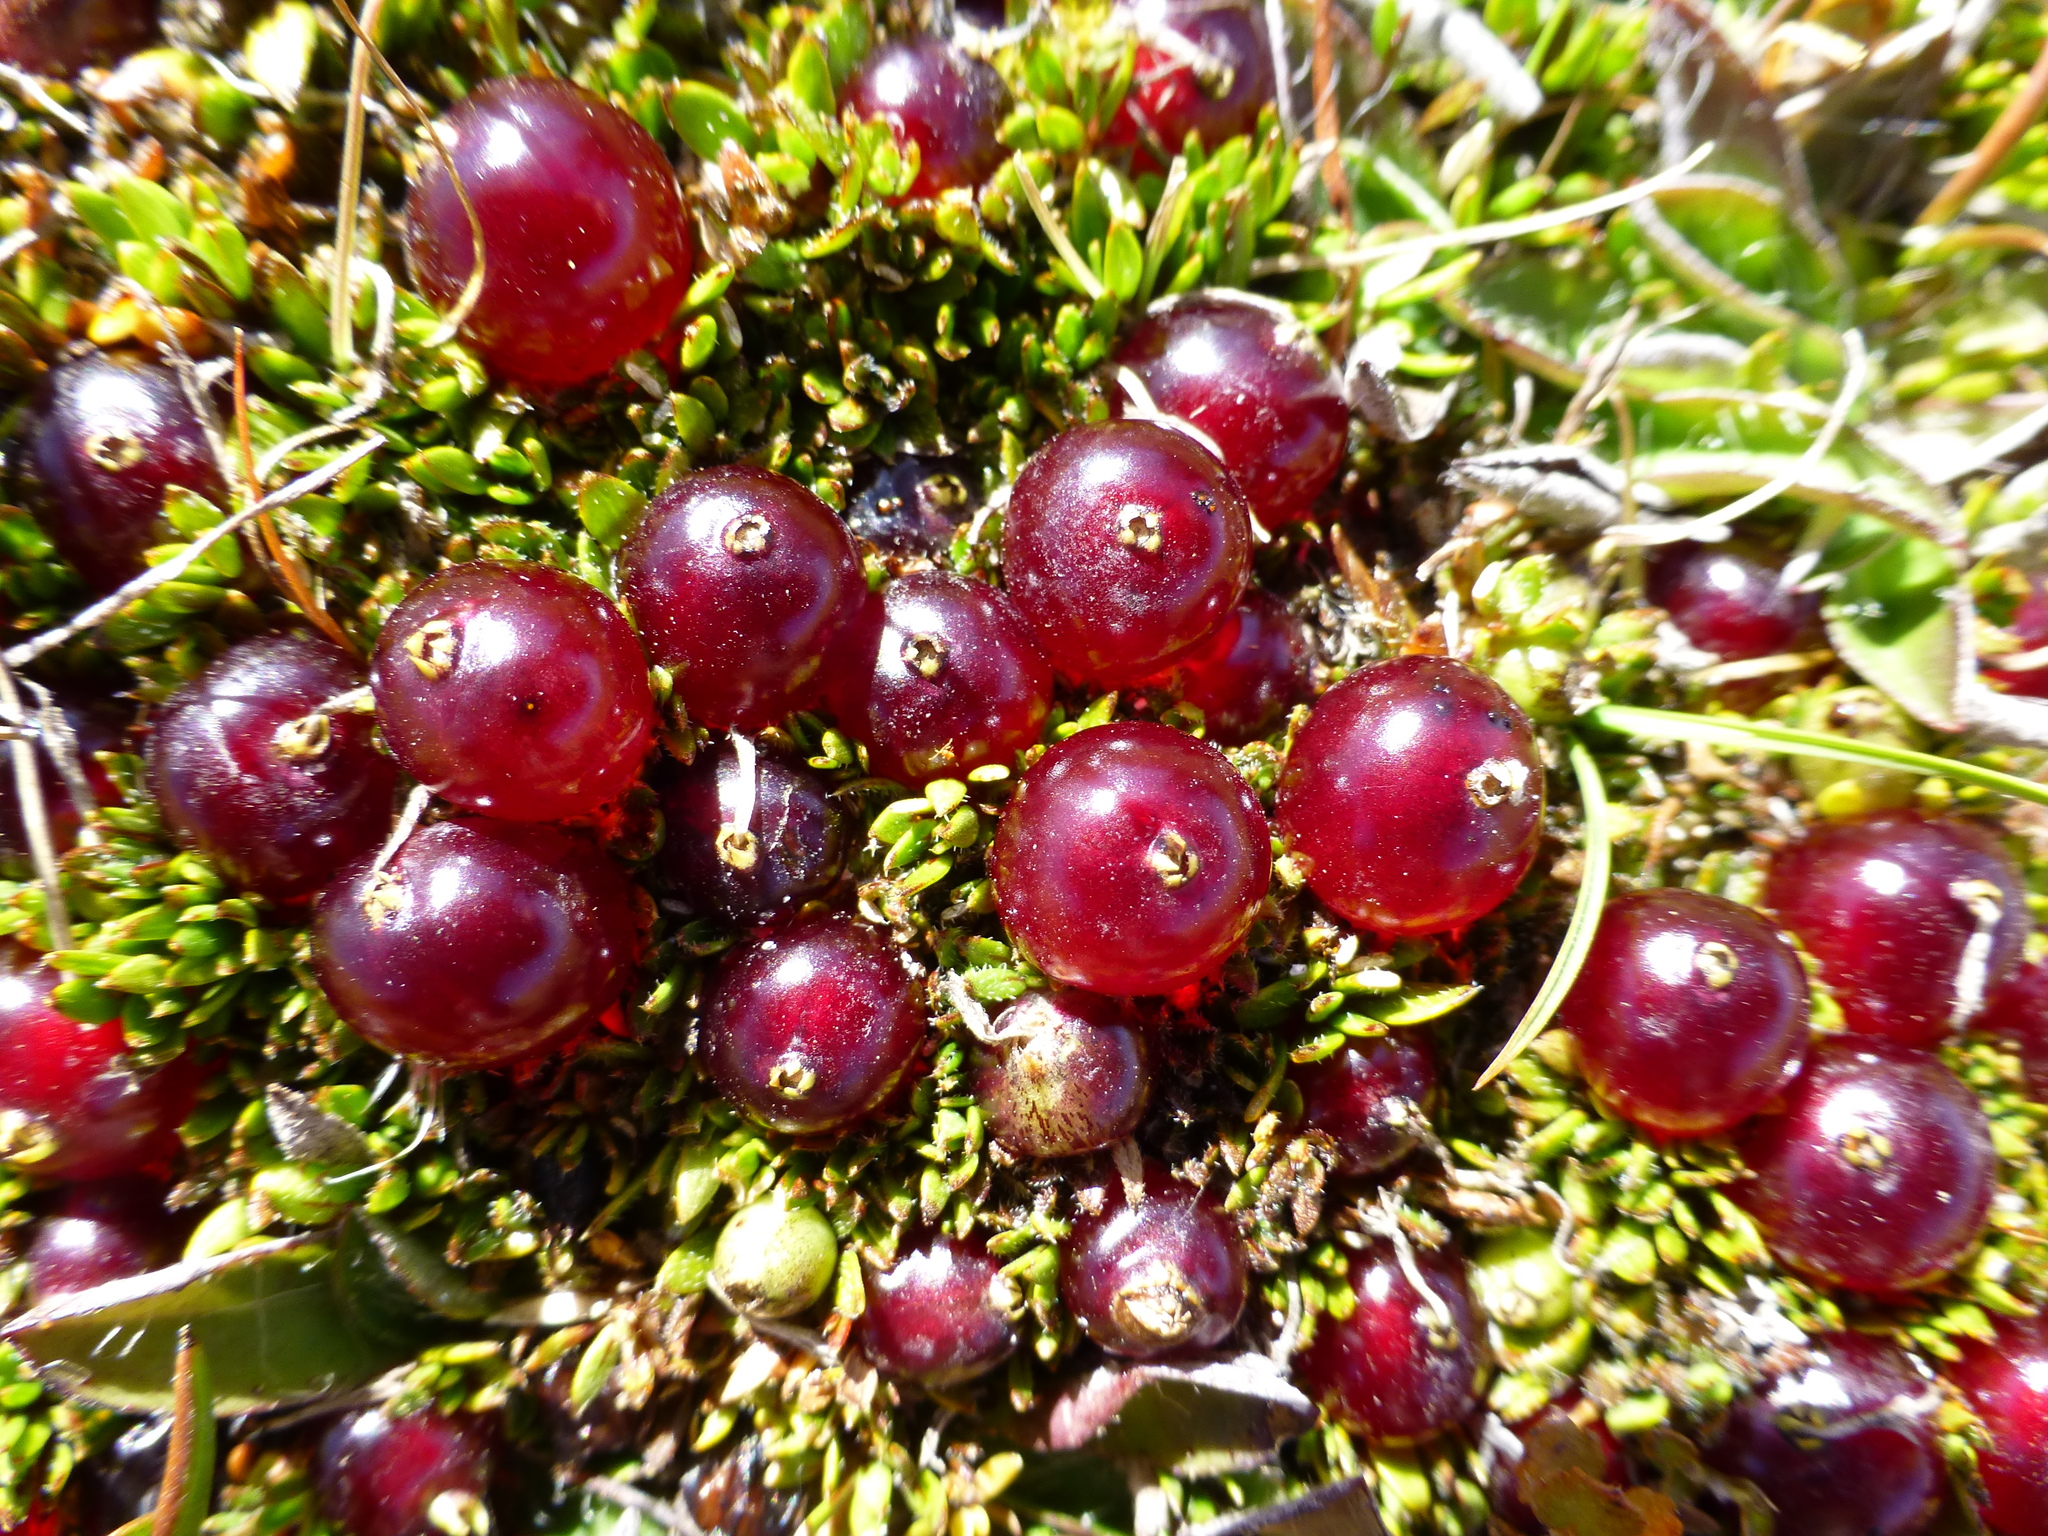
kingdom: Plantae
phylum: Tracheophyta
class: Magnoliopsida
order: Gentianales
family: Rubiaceae
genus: Coprosma
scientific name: Coprosma atropurpurea
